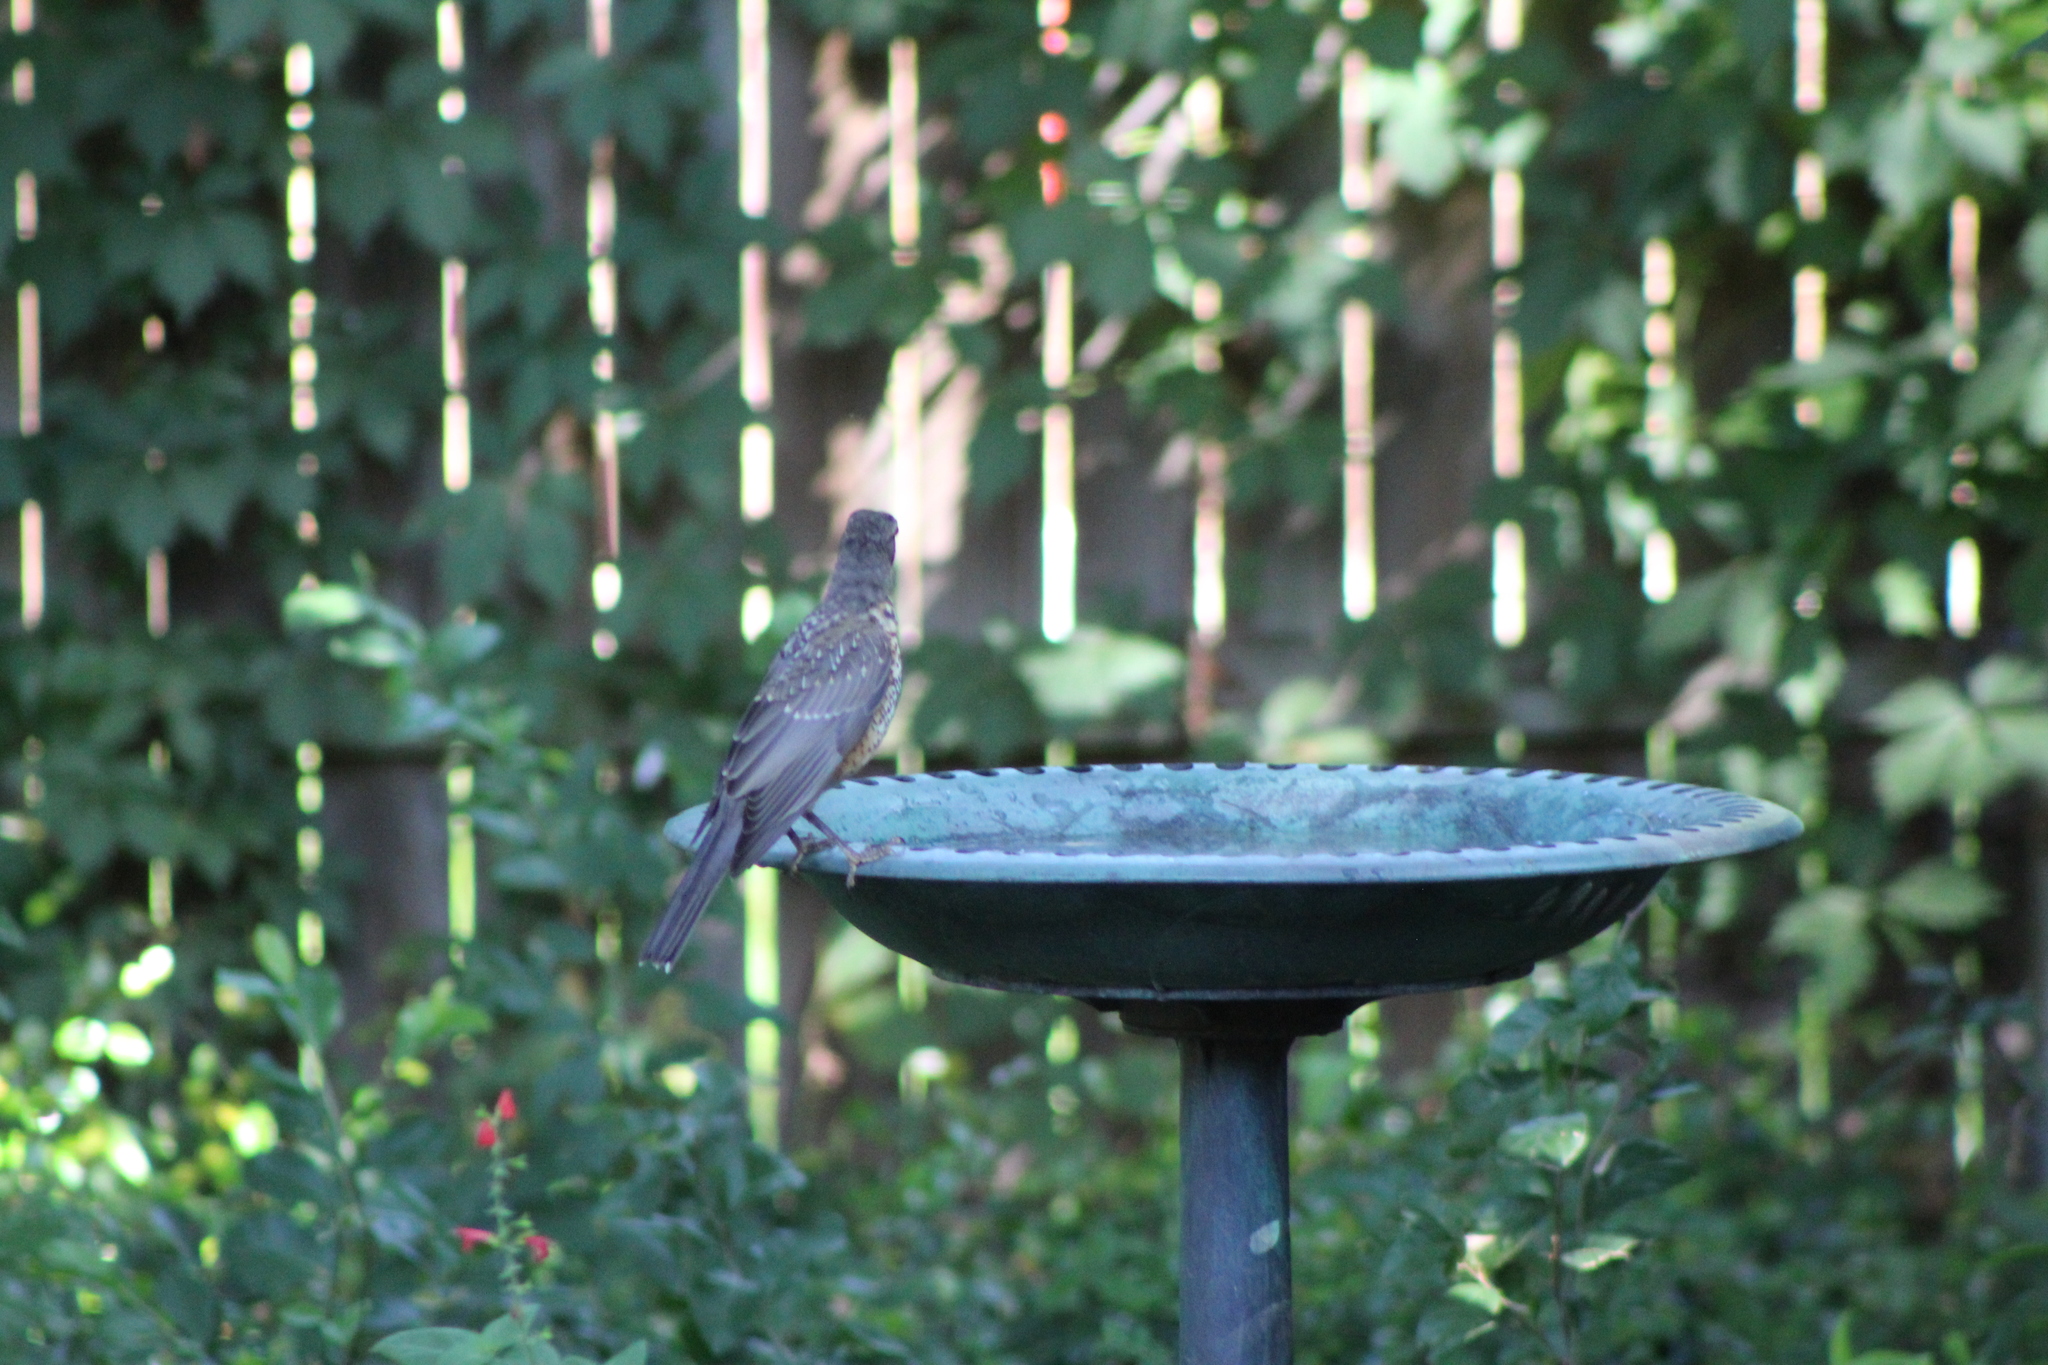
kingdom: Animalia
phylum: Chordata
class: Aves
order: Passeriformes
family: Turdidae
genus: Turdus
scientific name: Turdus migratorius
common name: American robin
